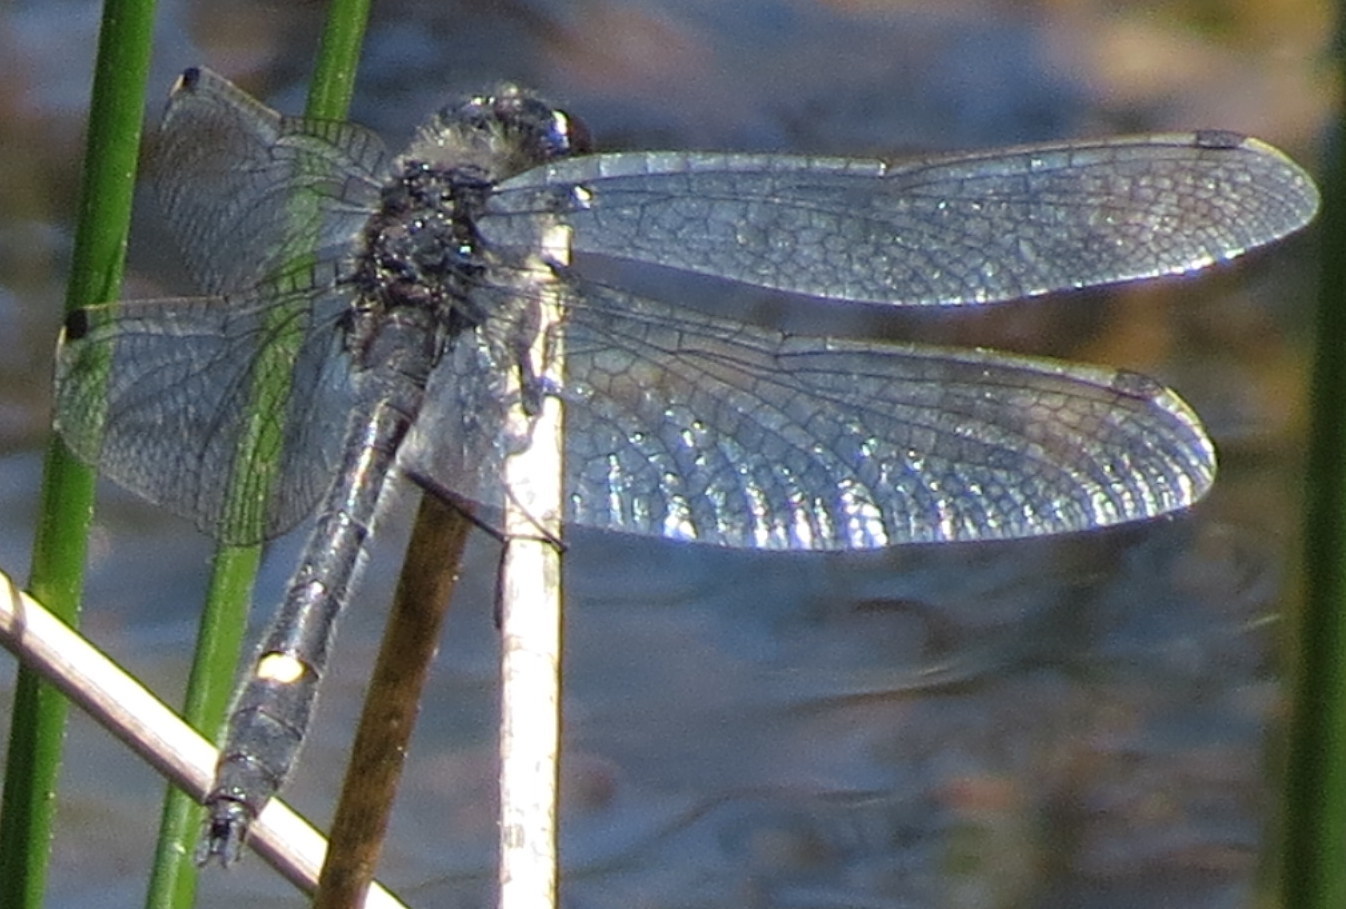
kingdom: Animalia
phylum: Arthropoda
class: Insecta
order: Odonata
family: Libellulidae
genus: Leucorrhinia
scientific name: Leucorrhinia intacta
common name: Dot-tailed whiteface
